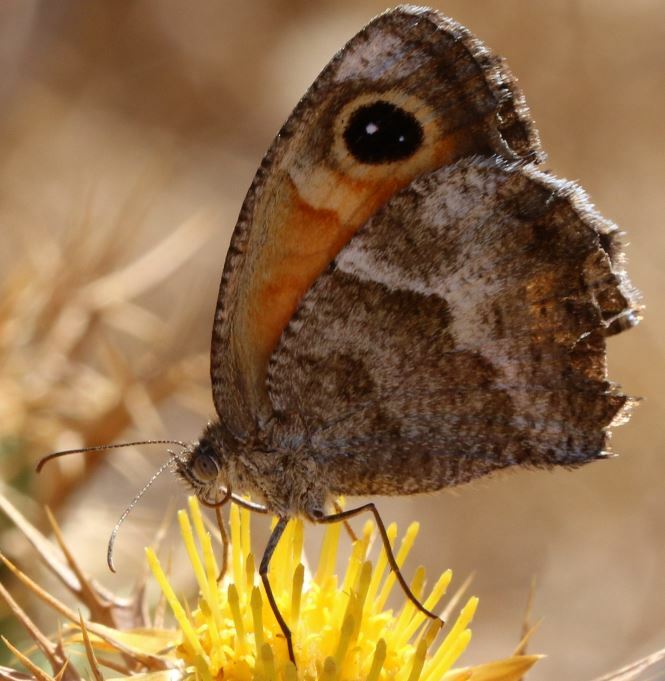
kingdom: Animalia
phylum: Arthropoda
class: Insecta
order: Lepidoptera
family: Nymphalidae
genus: Pyronia
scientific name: Pyronia cecilia
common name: Southern gatekeeper
